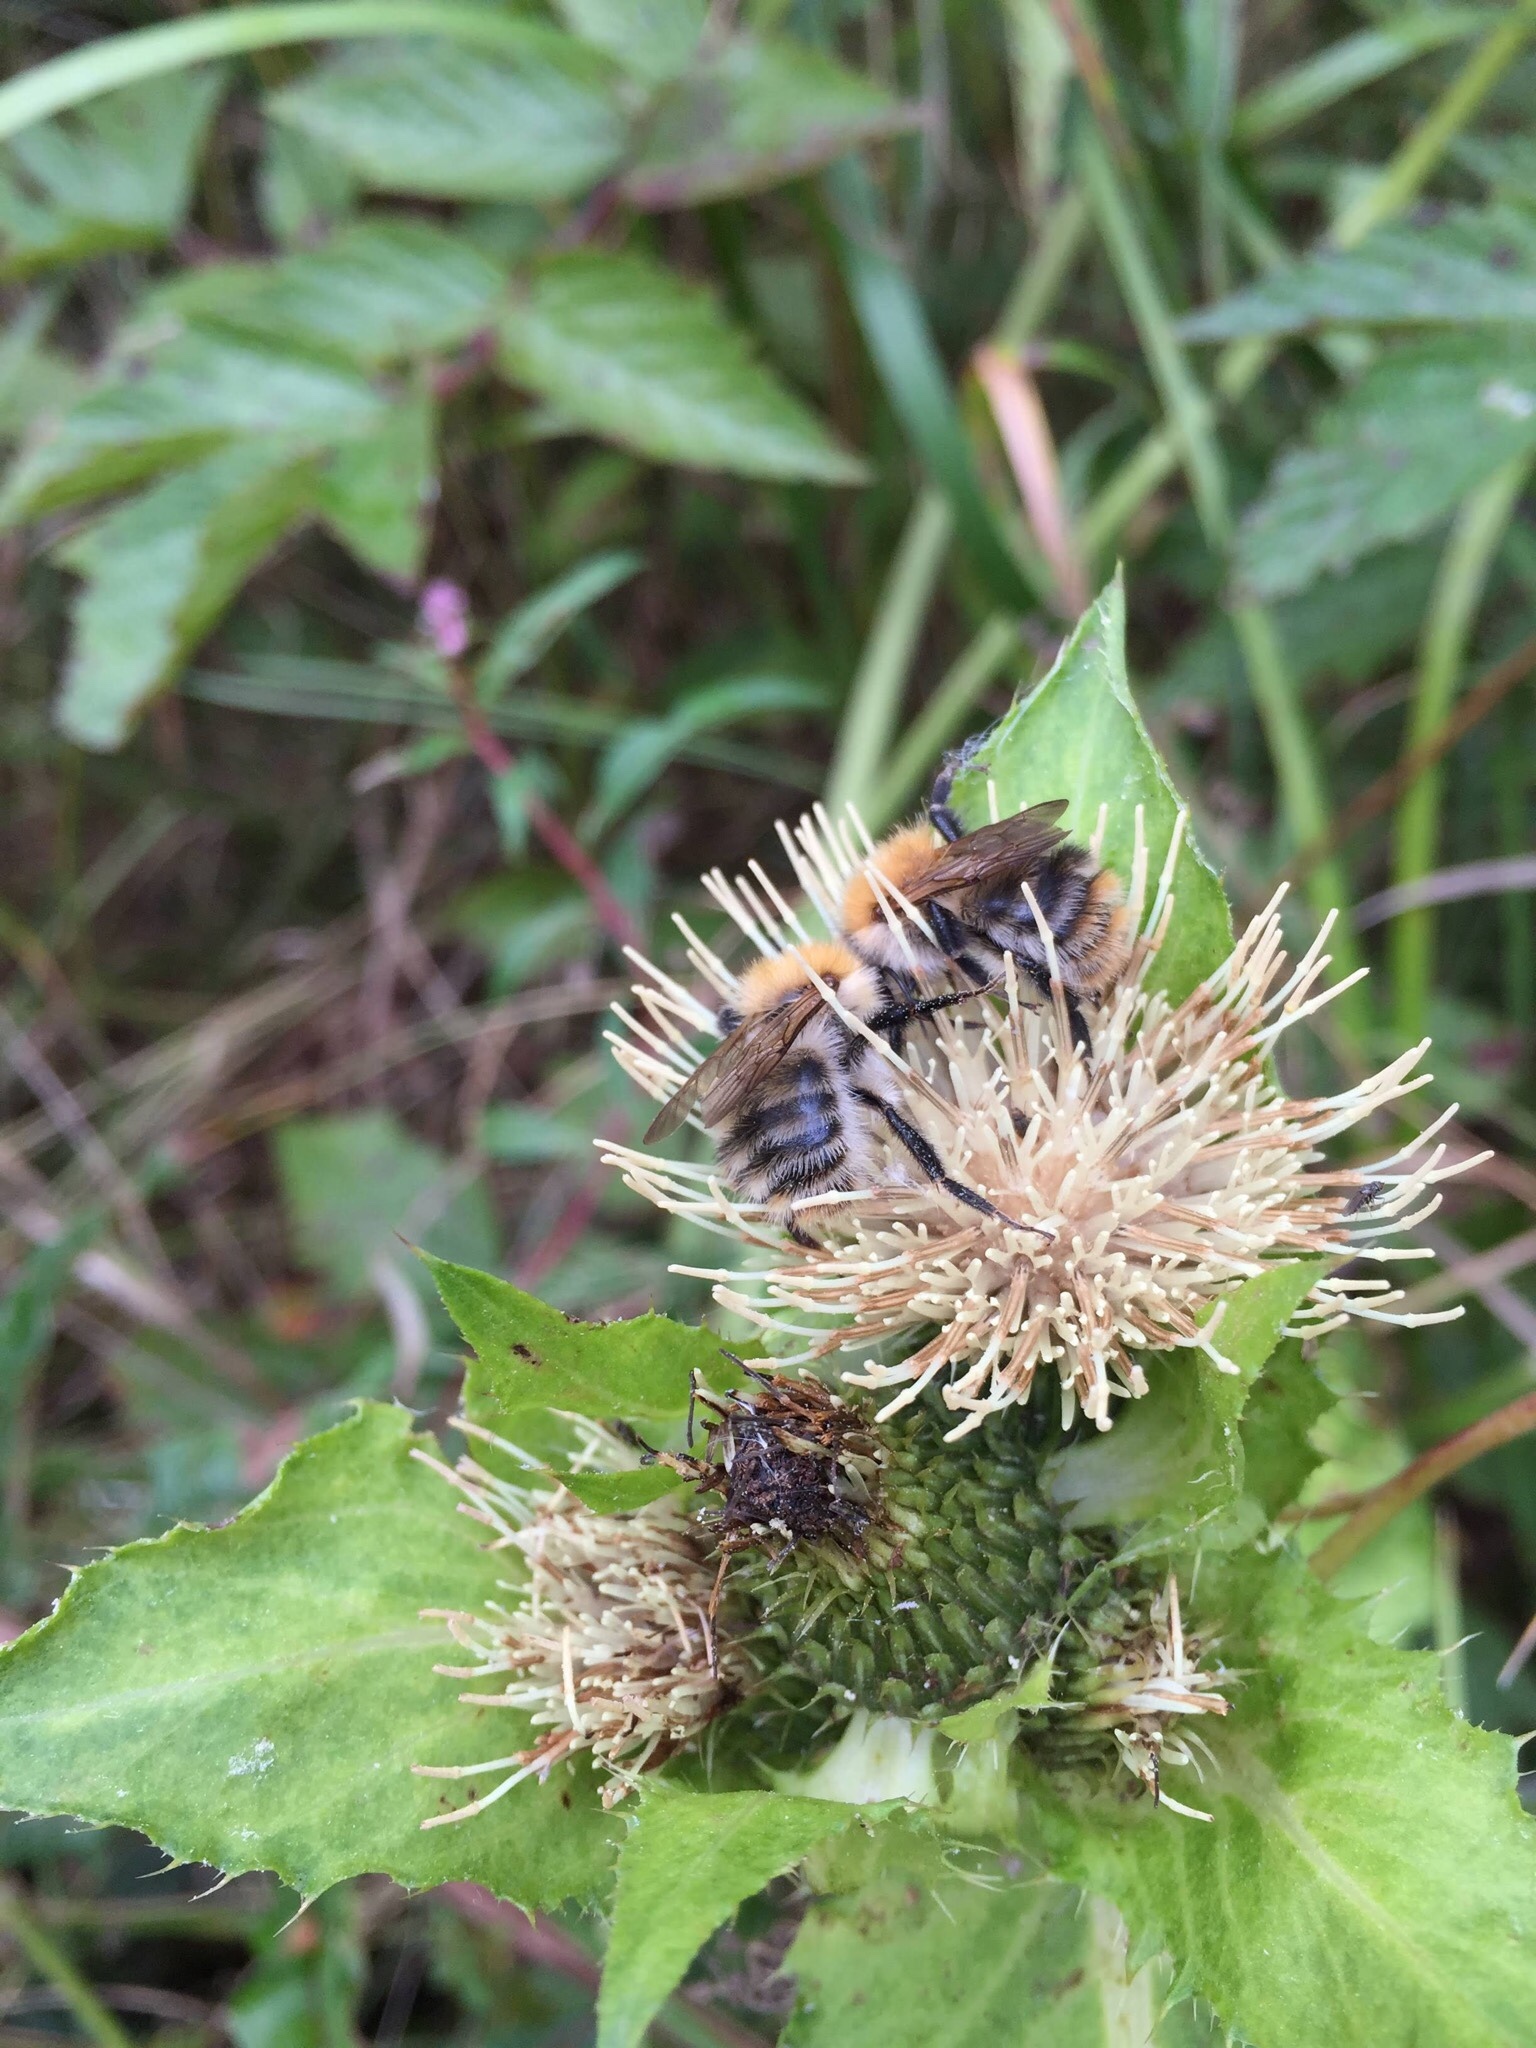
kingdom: Animalia
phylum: Arthropoda
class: Insecta
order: Hymenoptera
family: Apidae
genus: Bombus
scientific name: Bombus pascuorum
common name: Common carder bee
